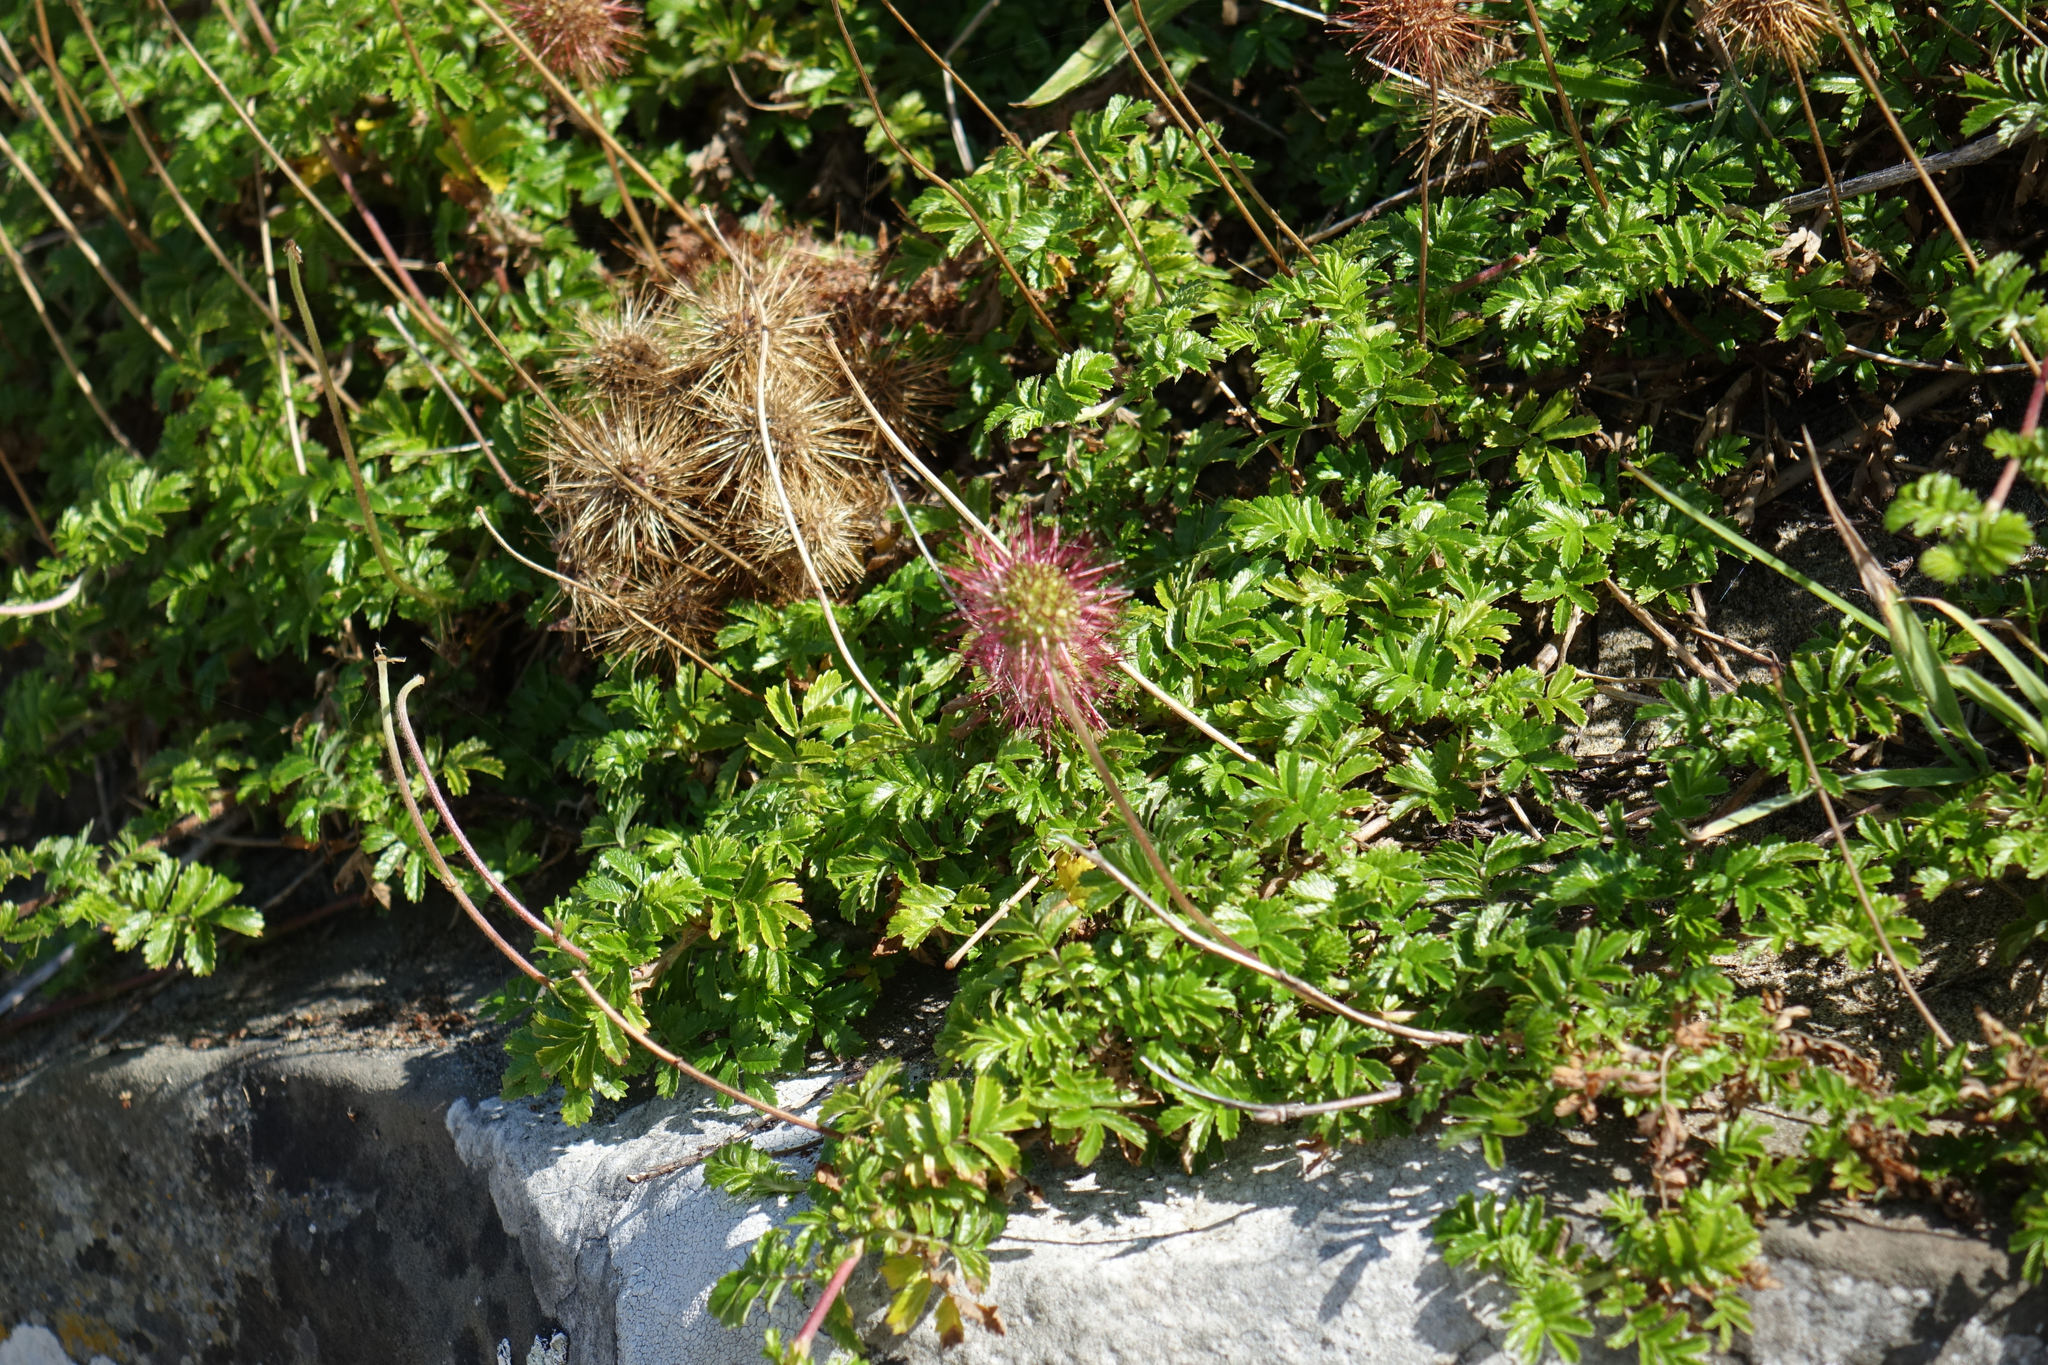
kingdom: Plantae
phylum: Tracheophyta
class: Magnoliopsida
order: Rosales
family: Rosaceae
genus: Acaena
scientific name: Acaena novae-zelandiae
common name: Pirri-pirri-bur
